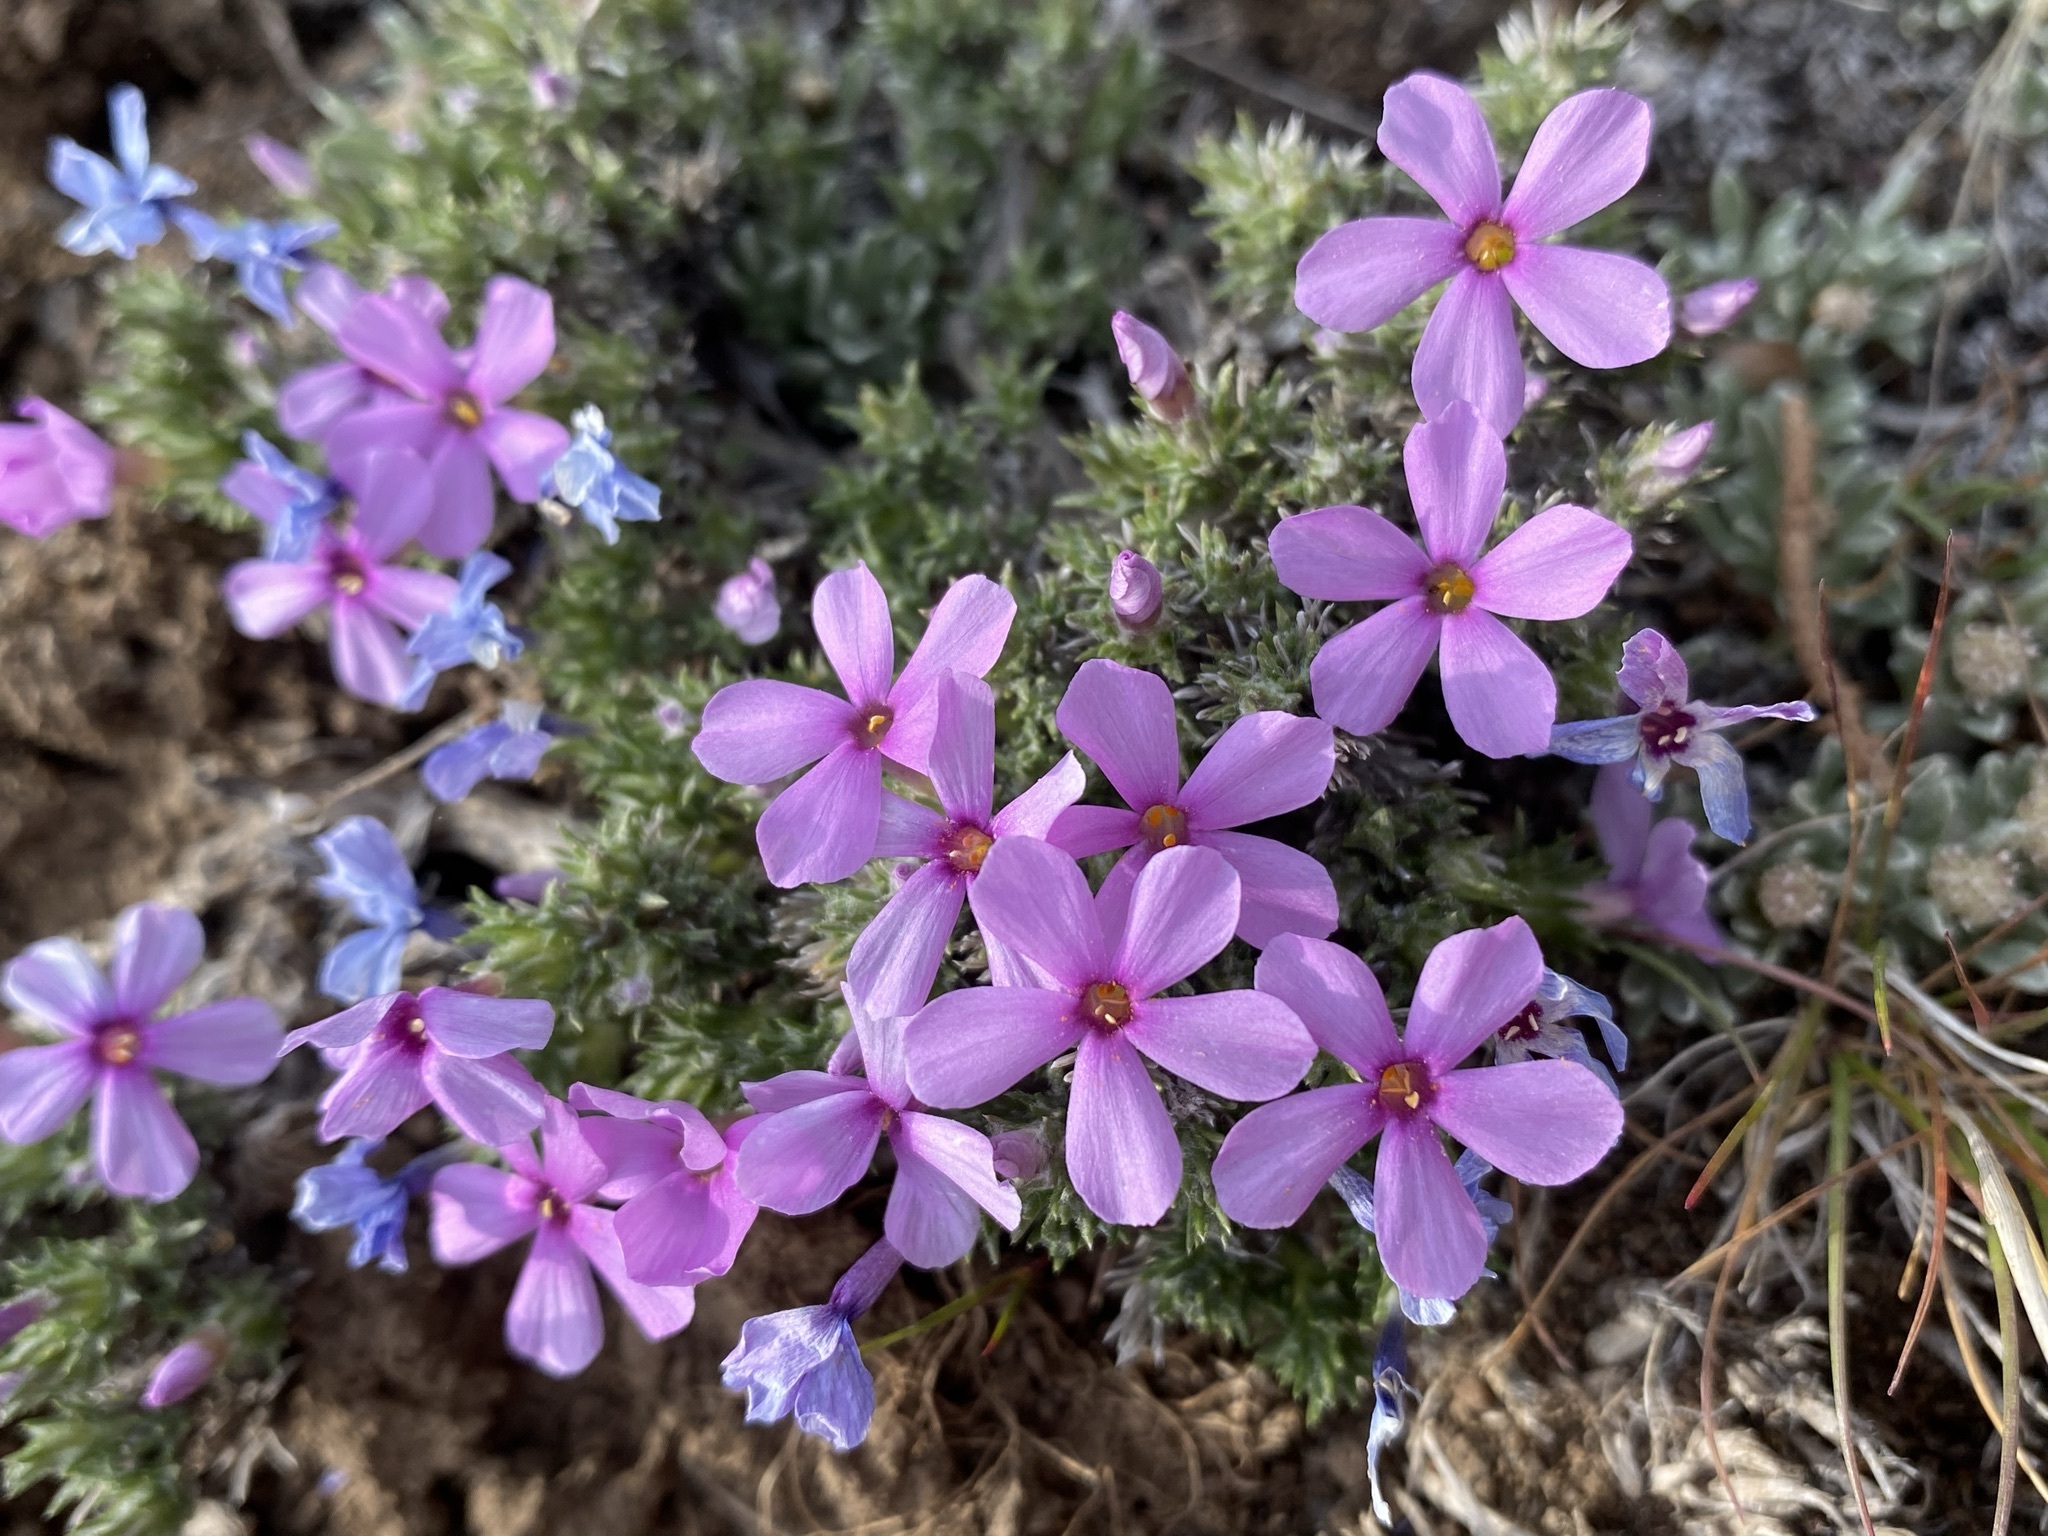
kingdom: Plantae
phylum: Tracheophyta
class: Magnoliopsida
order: Ericales
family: Polemoniaceae
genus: Phlox
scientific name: Phlox hoodii
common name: Moss phlox
